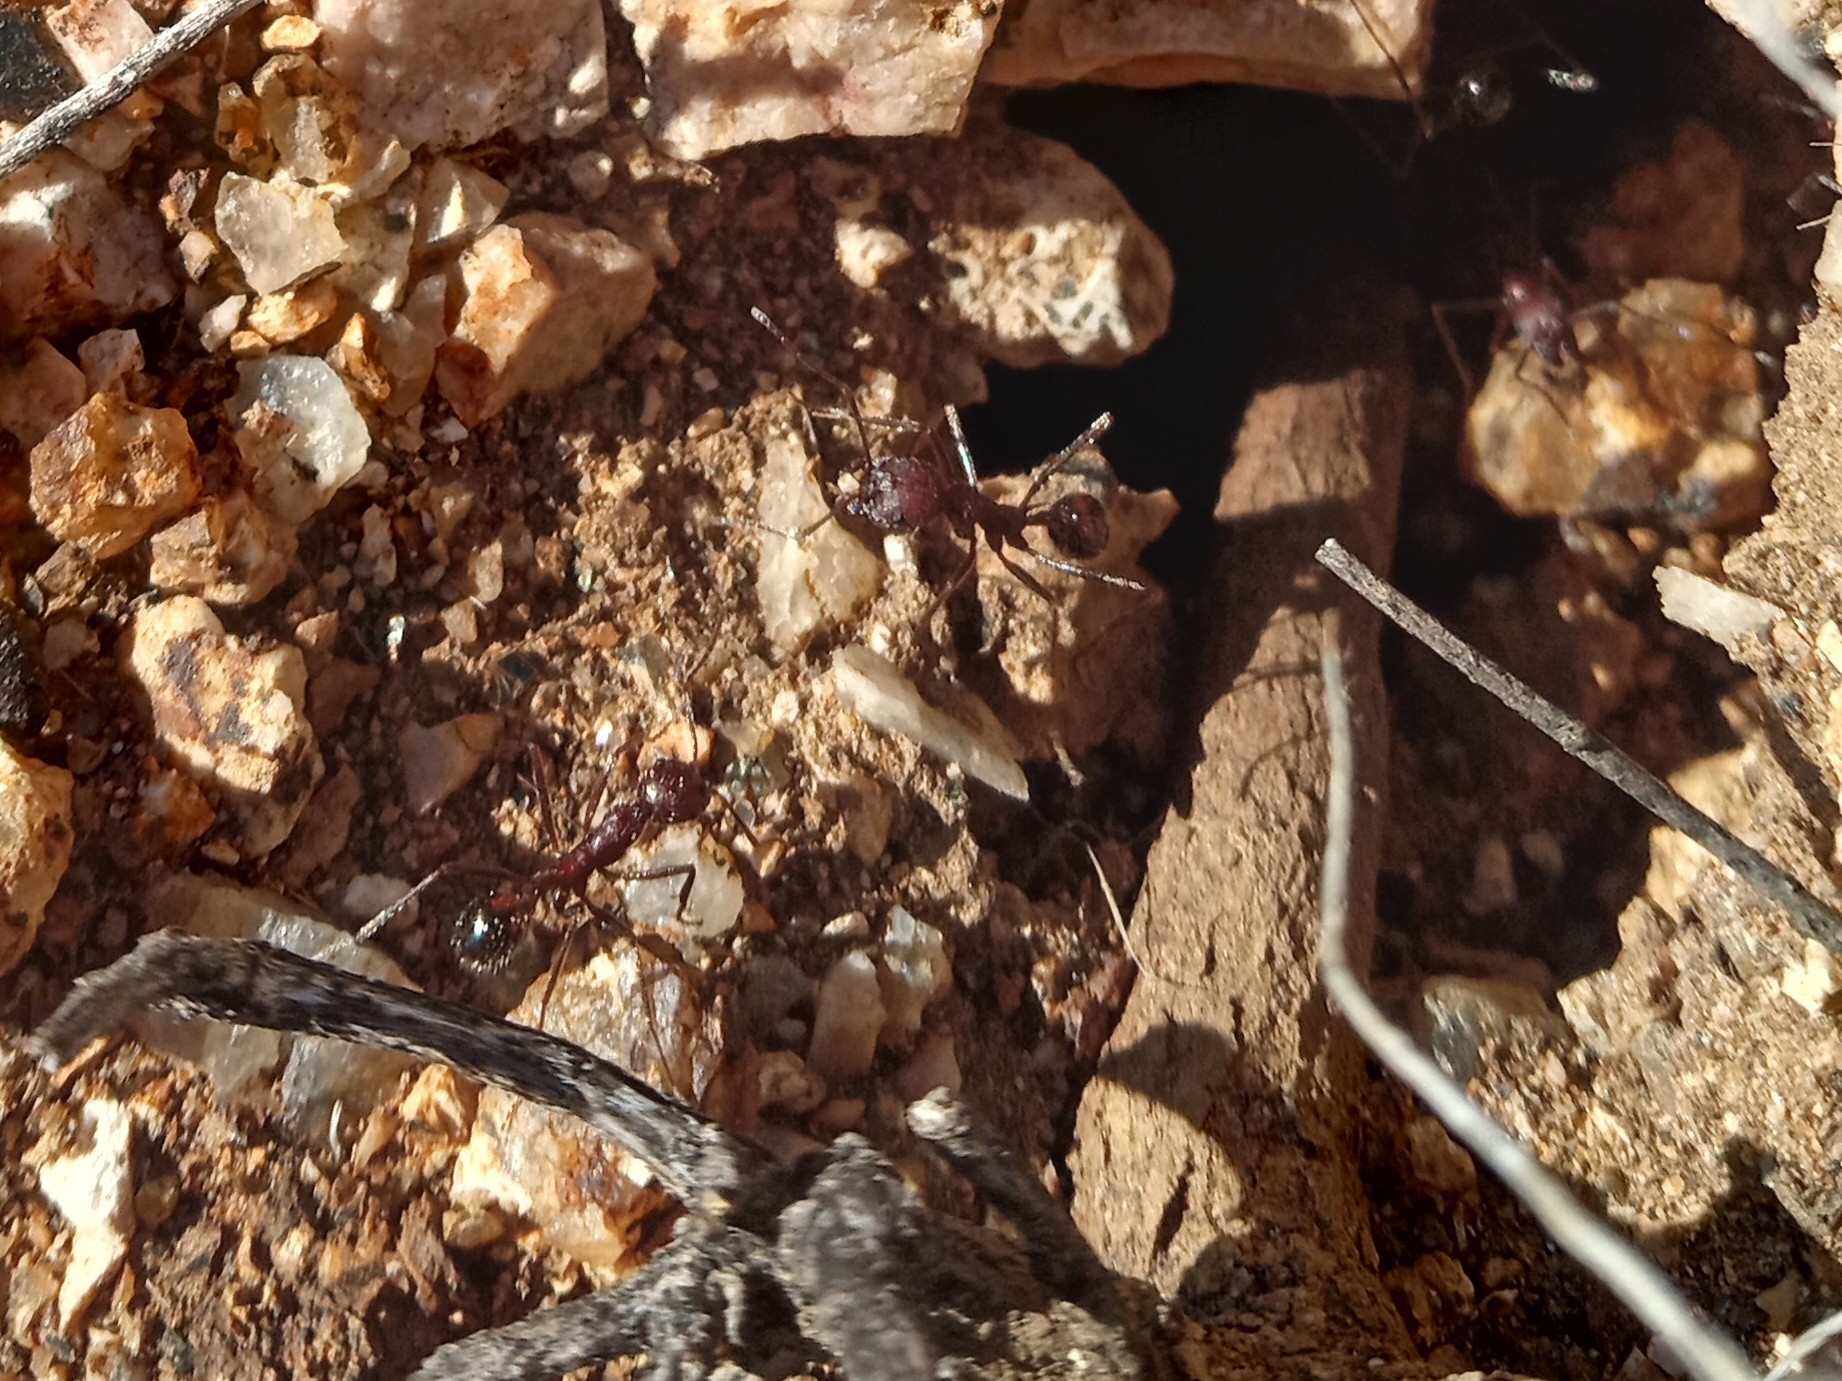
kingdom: Animalia
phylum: Arthropoda
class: Insecta
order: Hymenoptera
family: Formicidae
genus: Novomessor
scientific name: Novomessor albisetosa
